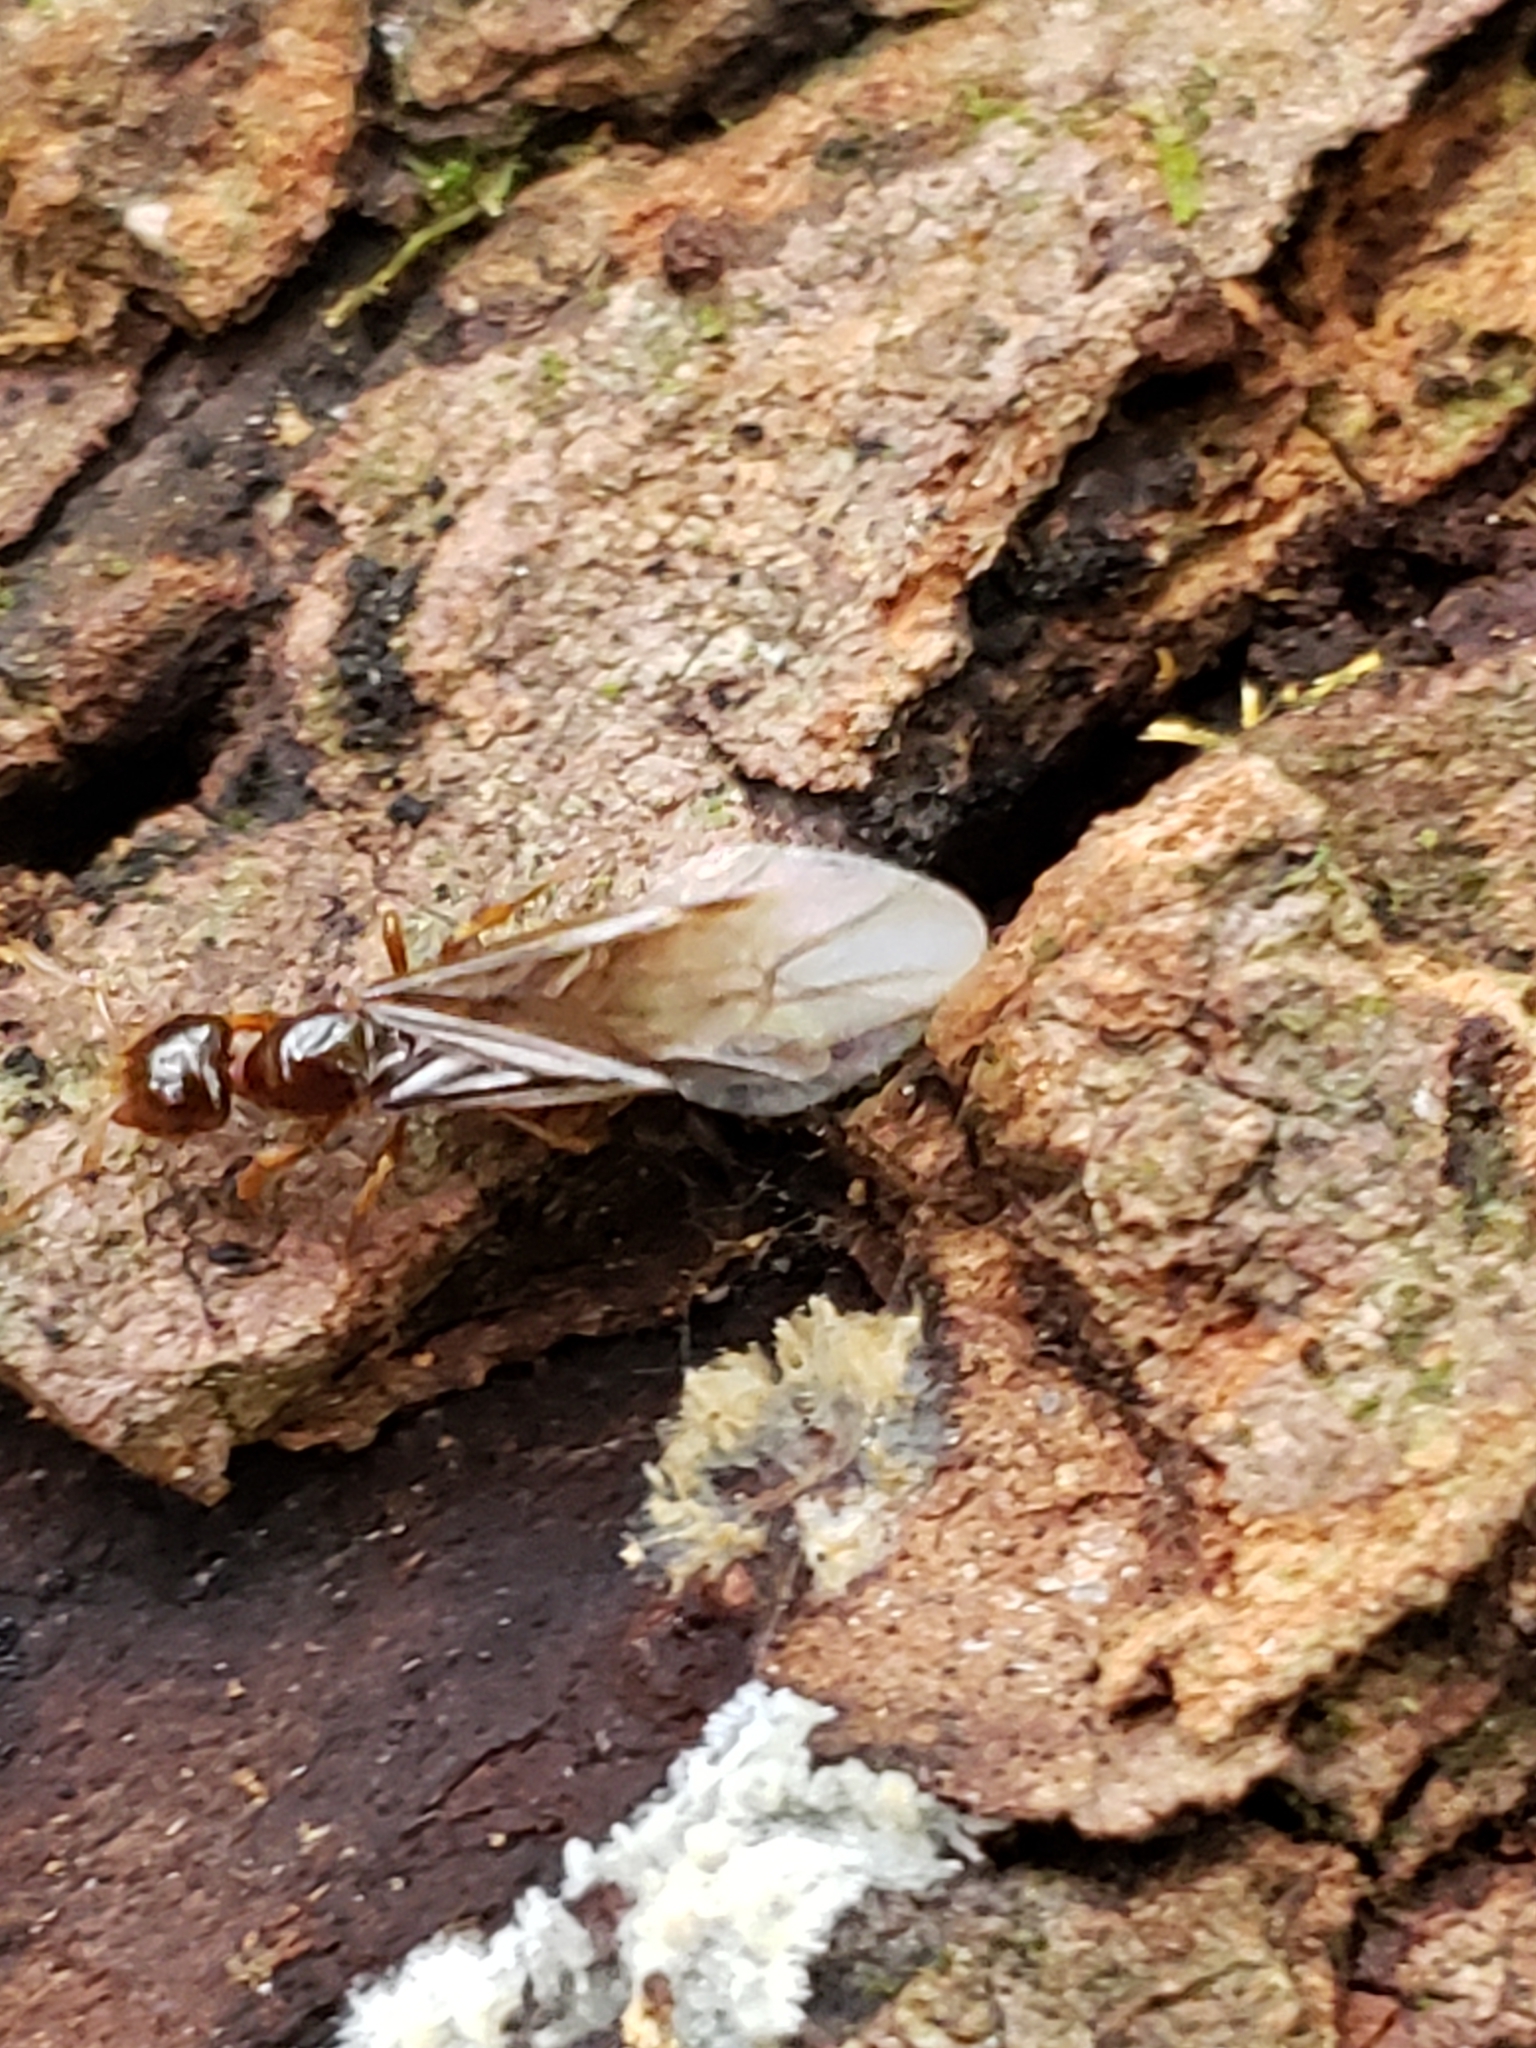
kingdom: Animalia
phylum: Arthropoda
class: Insecta
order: Hymenoptera
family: Formicidae
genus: Lasius
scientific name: Lasius claviger
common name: Common citronella ant
